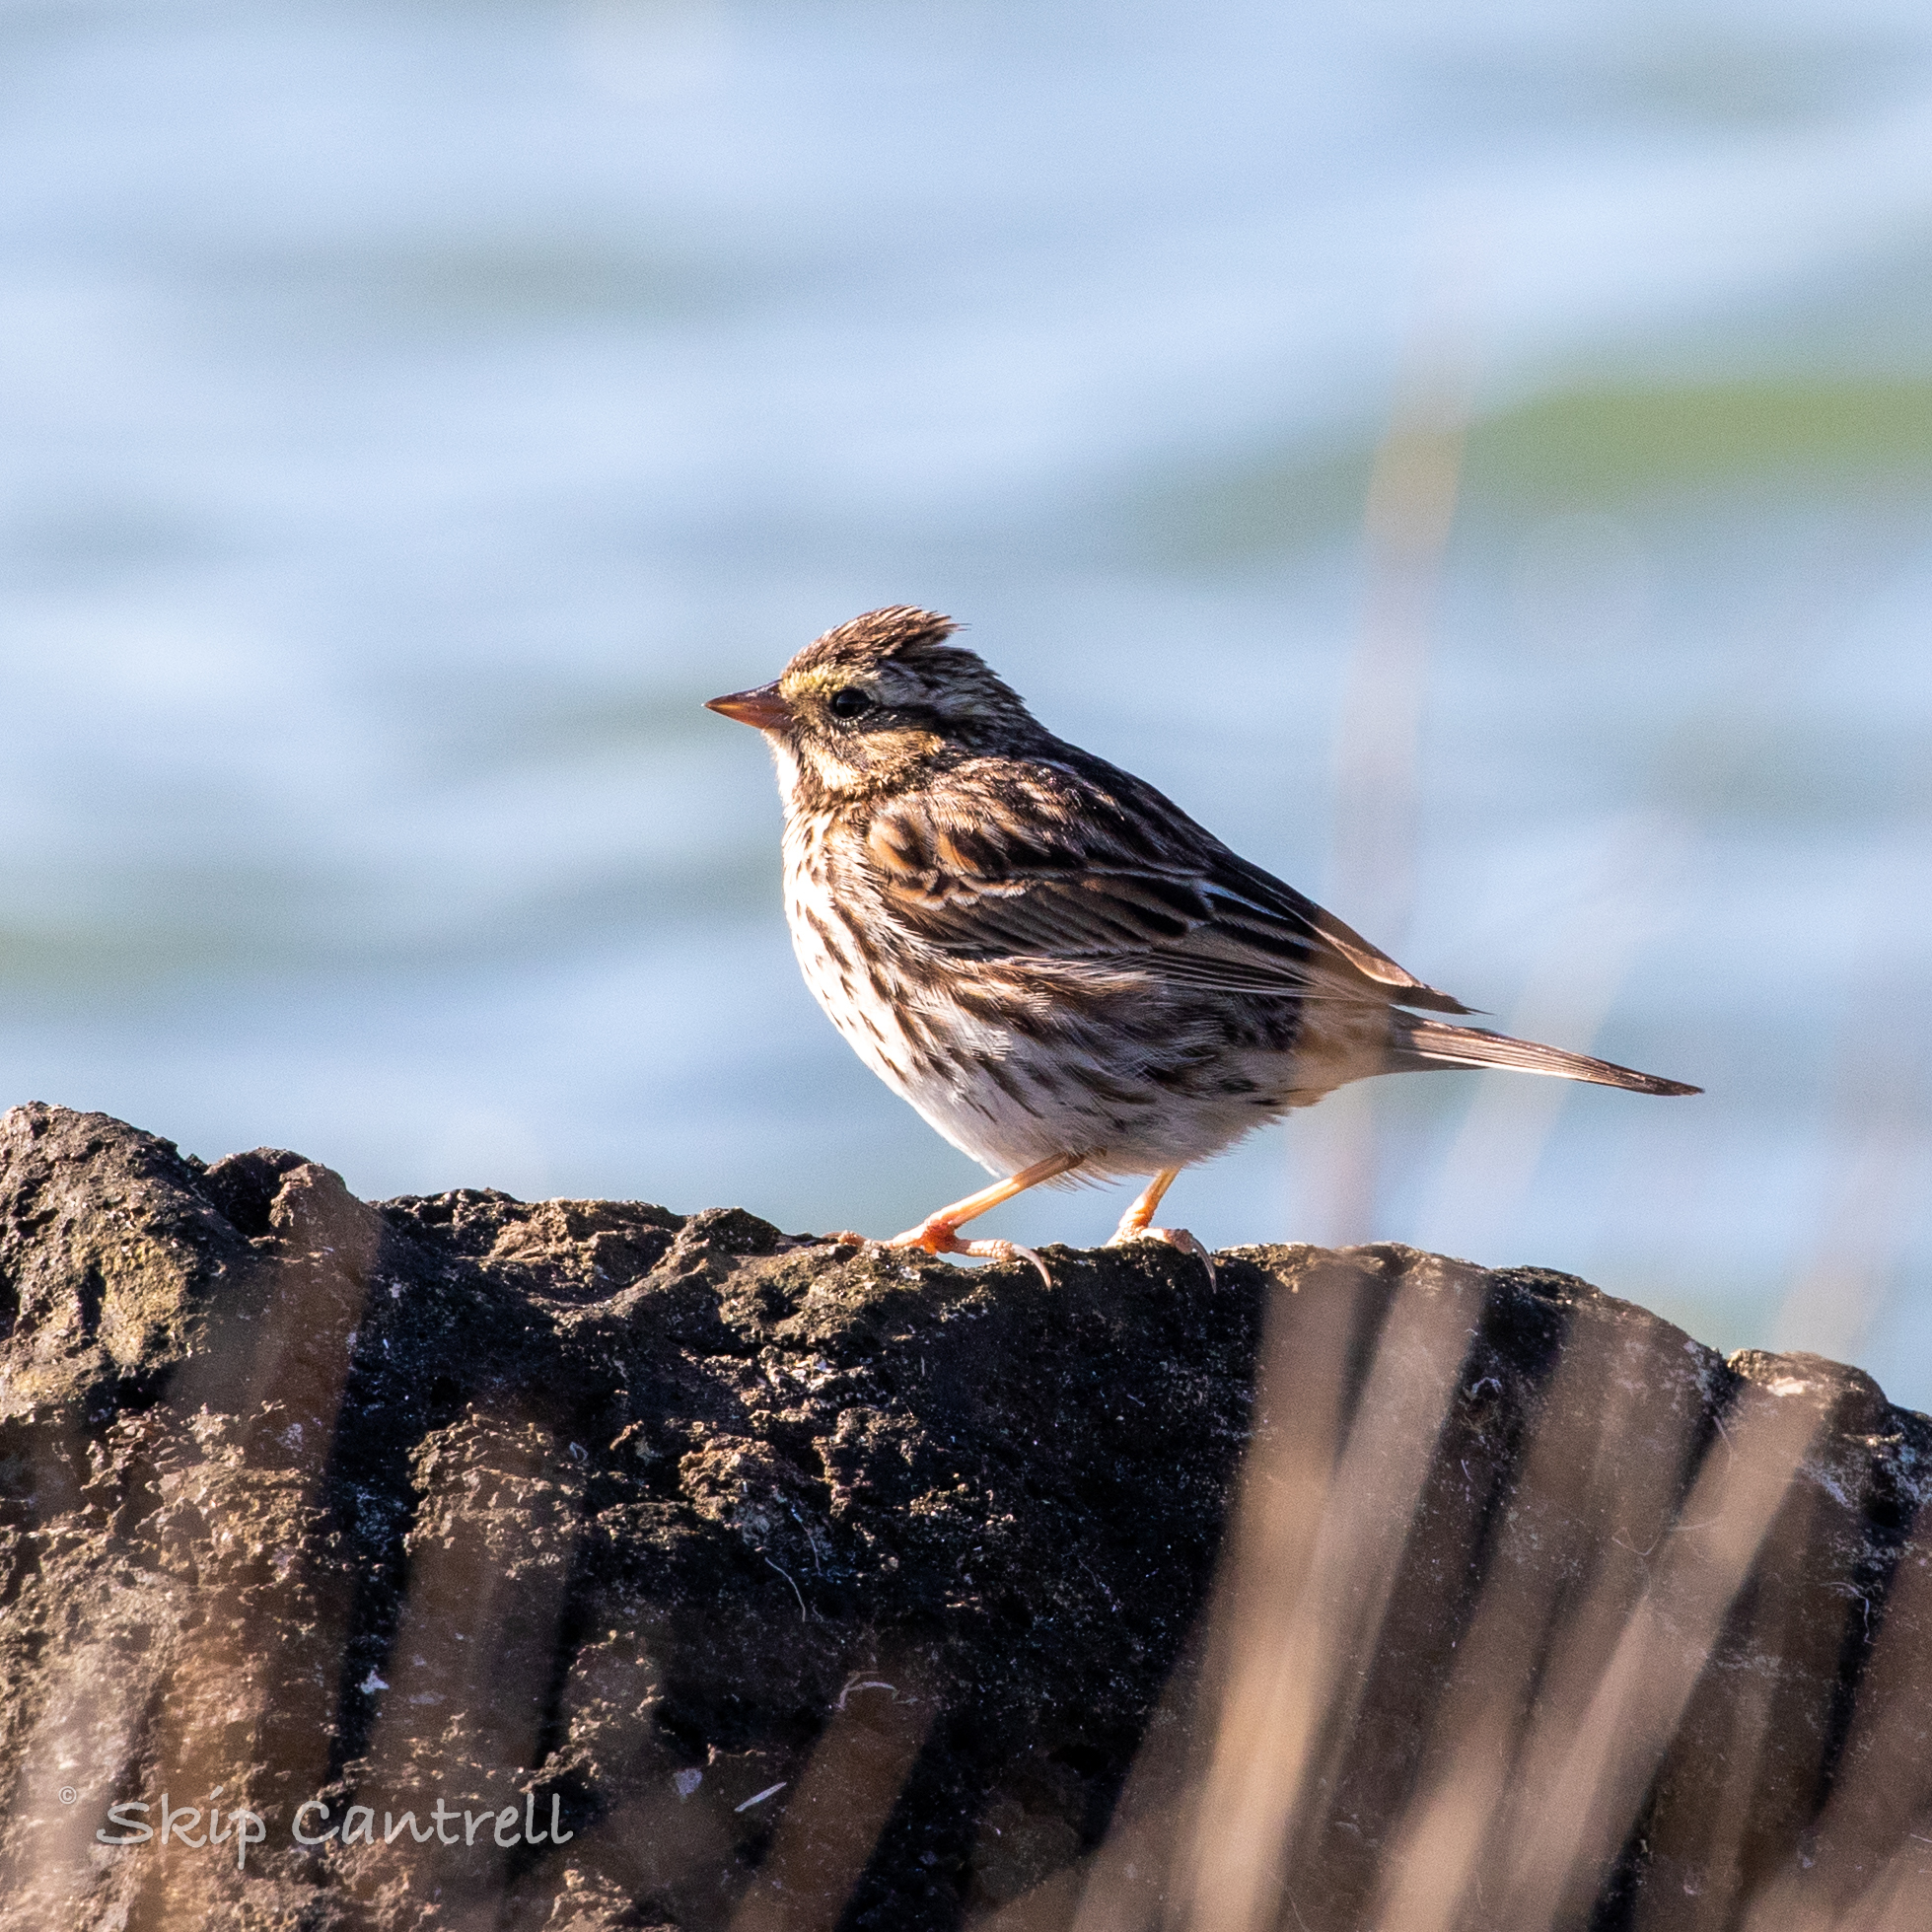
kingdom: Animalia
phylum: Chordata
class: Aves
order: Passeriformes
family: Passerellidae
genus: Passerculus
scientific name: Passerculus sandwichensis
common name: Savannah sparrow
